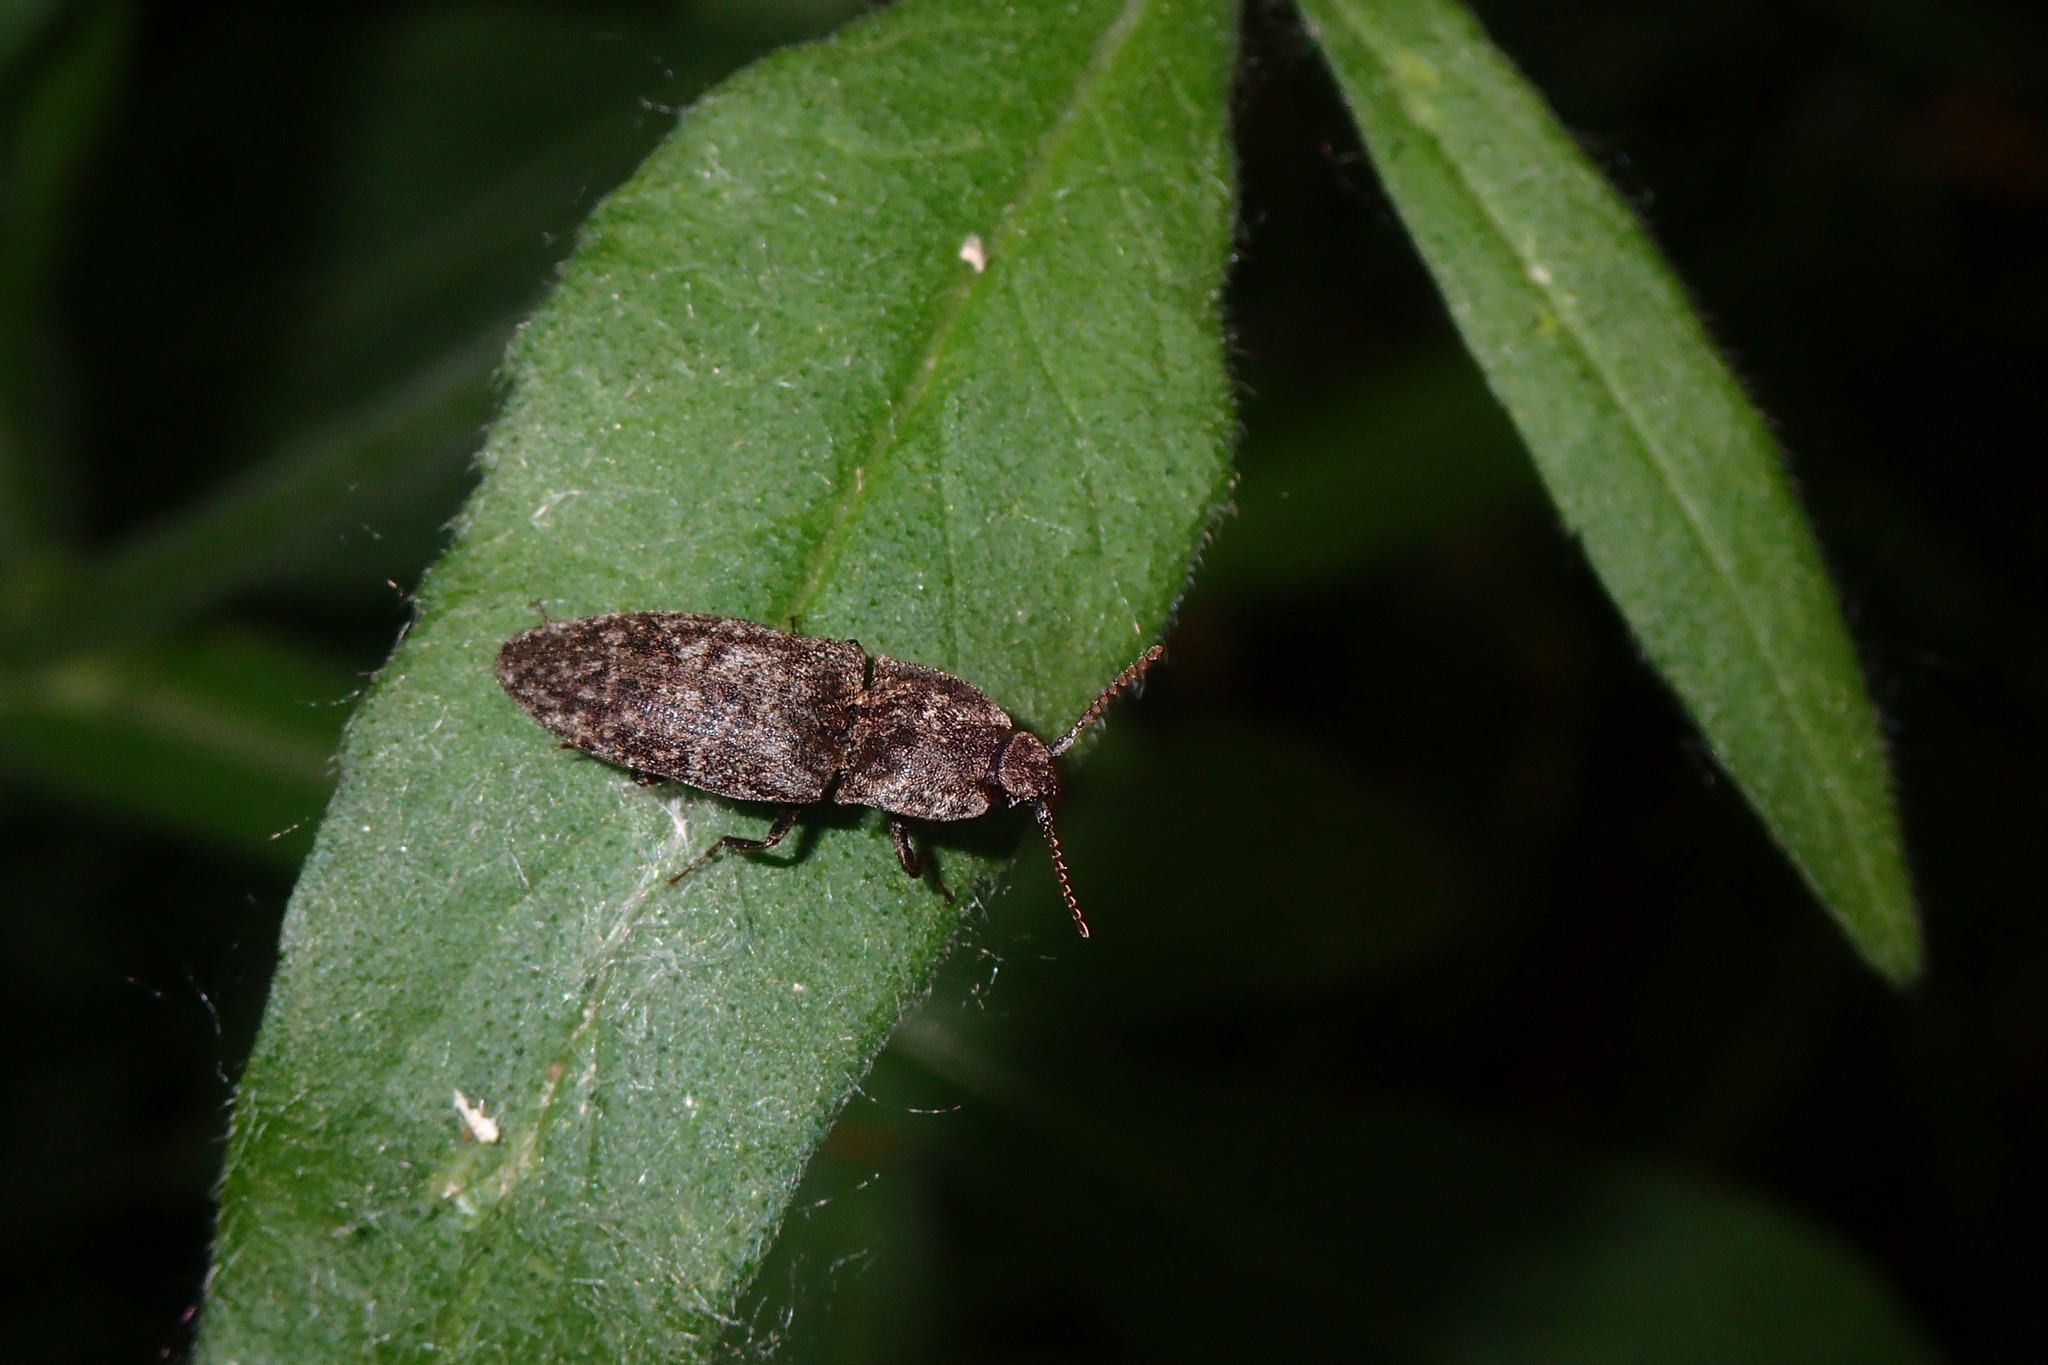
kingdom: Animalia
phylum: Arthropoda
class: Insecta
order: Coleoptera
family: Elateridae
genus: Agrypnus
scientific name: Agrypnus murinus
